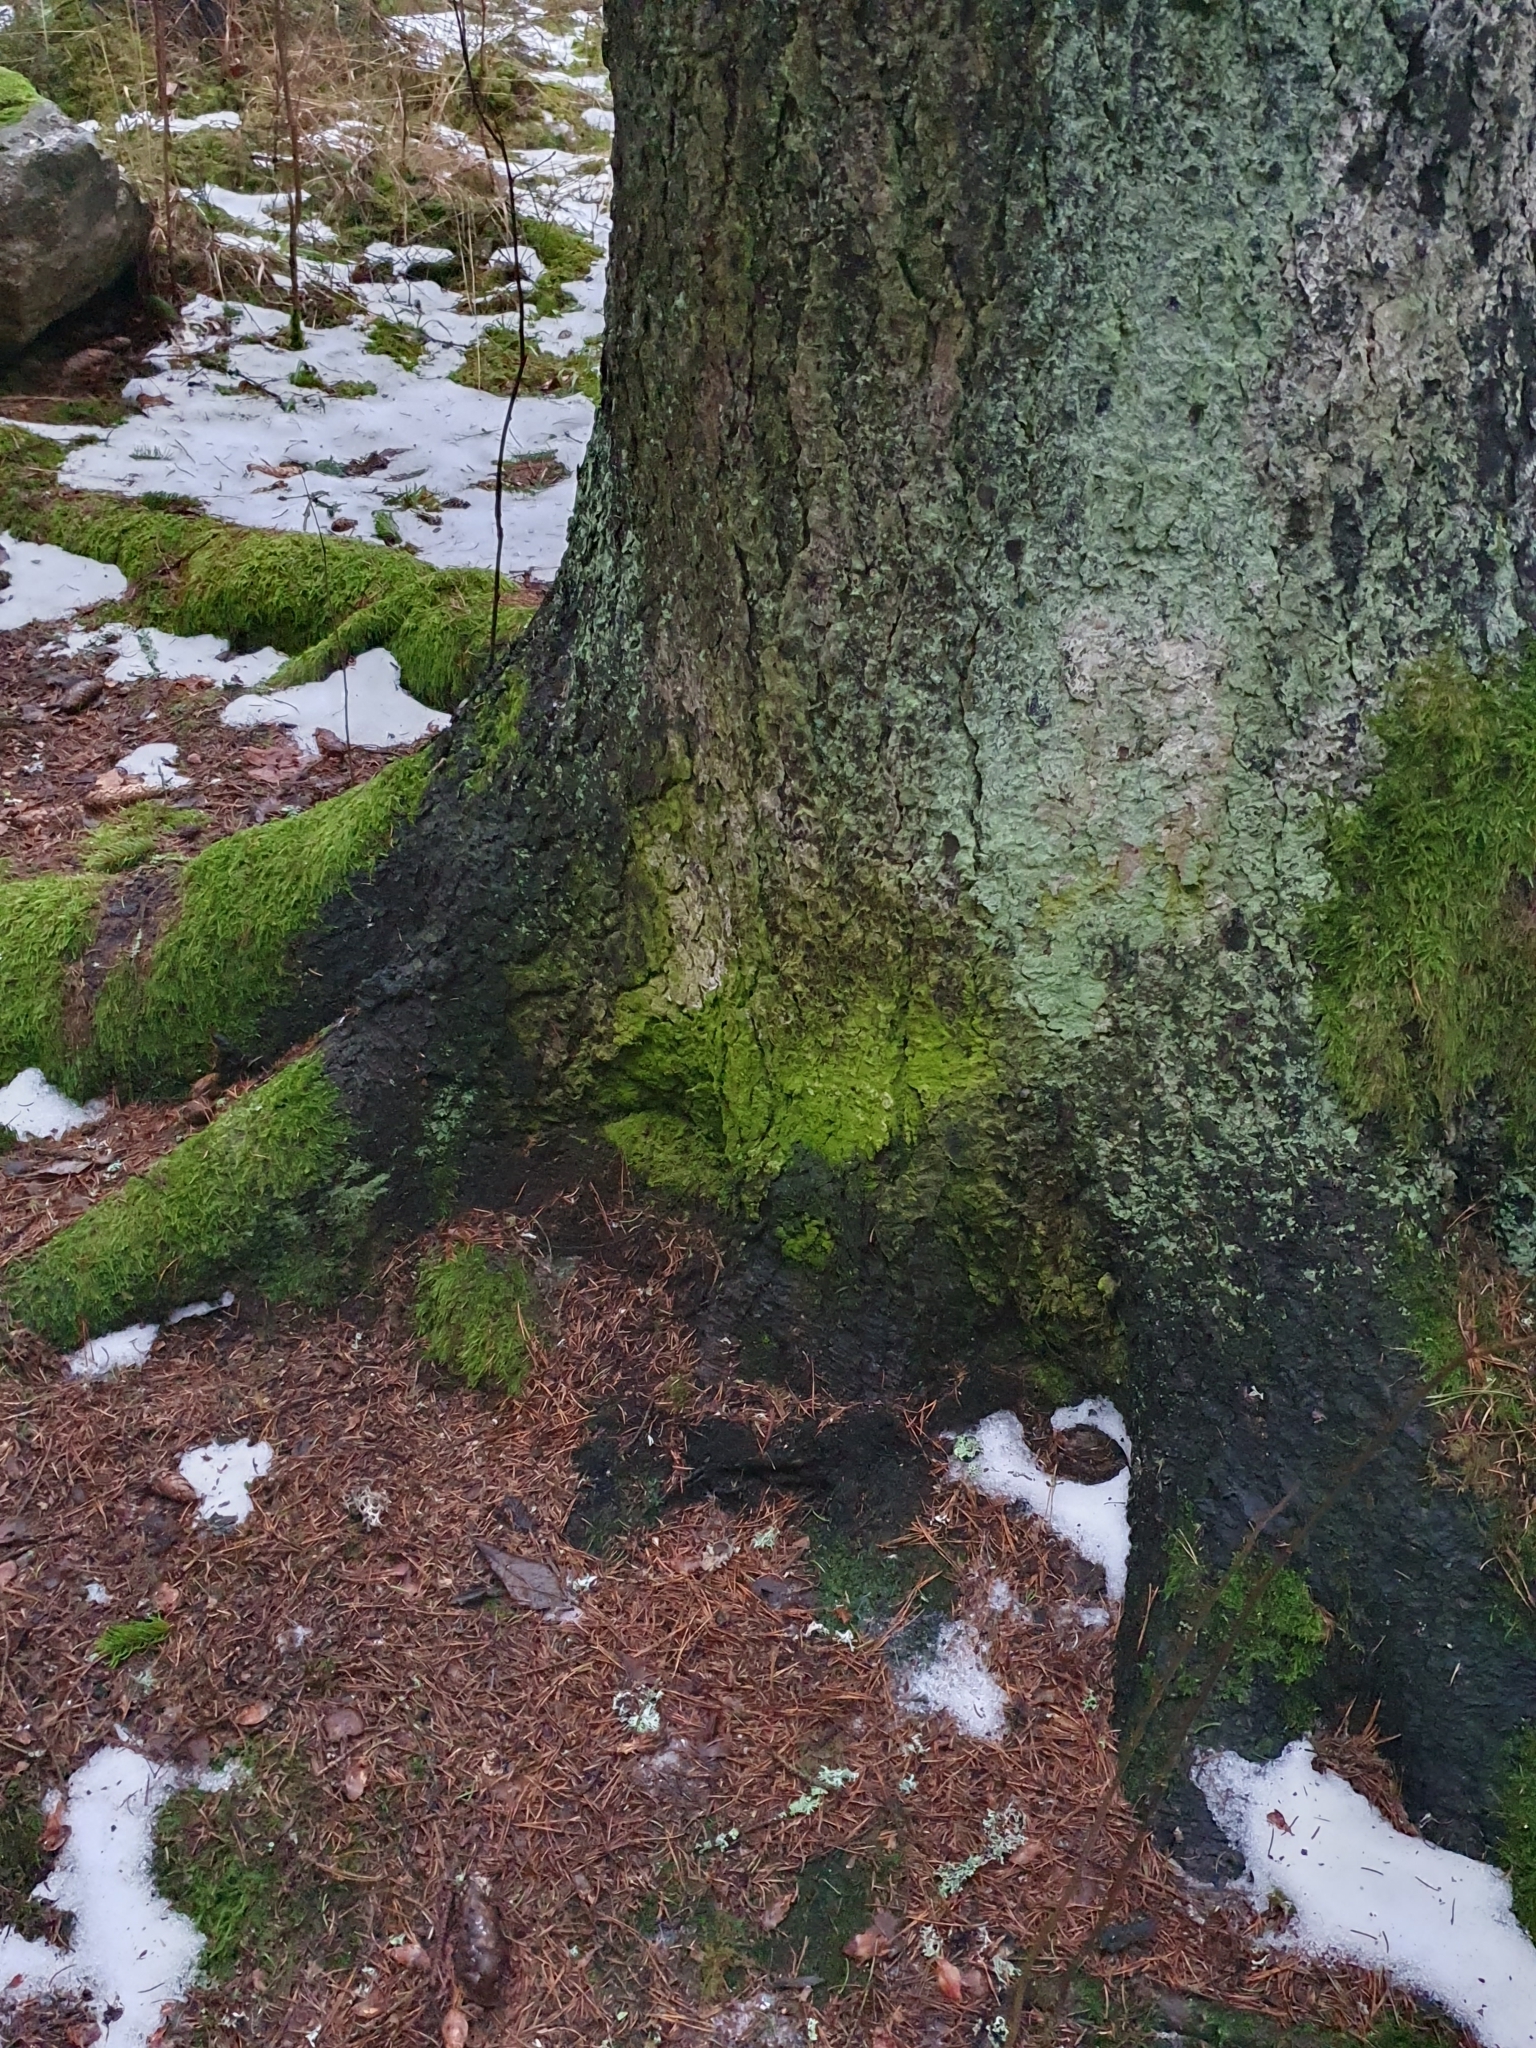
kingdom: Plantae
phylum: Chlorophyta
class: Trebouxiophyceae
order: Prasiolales
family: Prasiolaceae
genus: Desmococcus
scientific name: Desmococcus olivaceus
